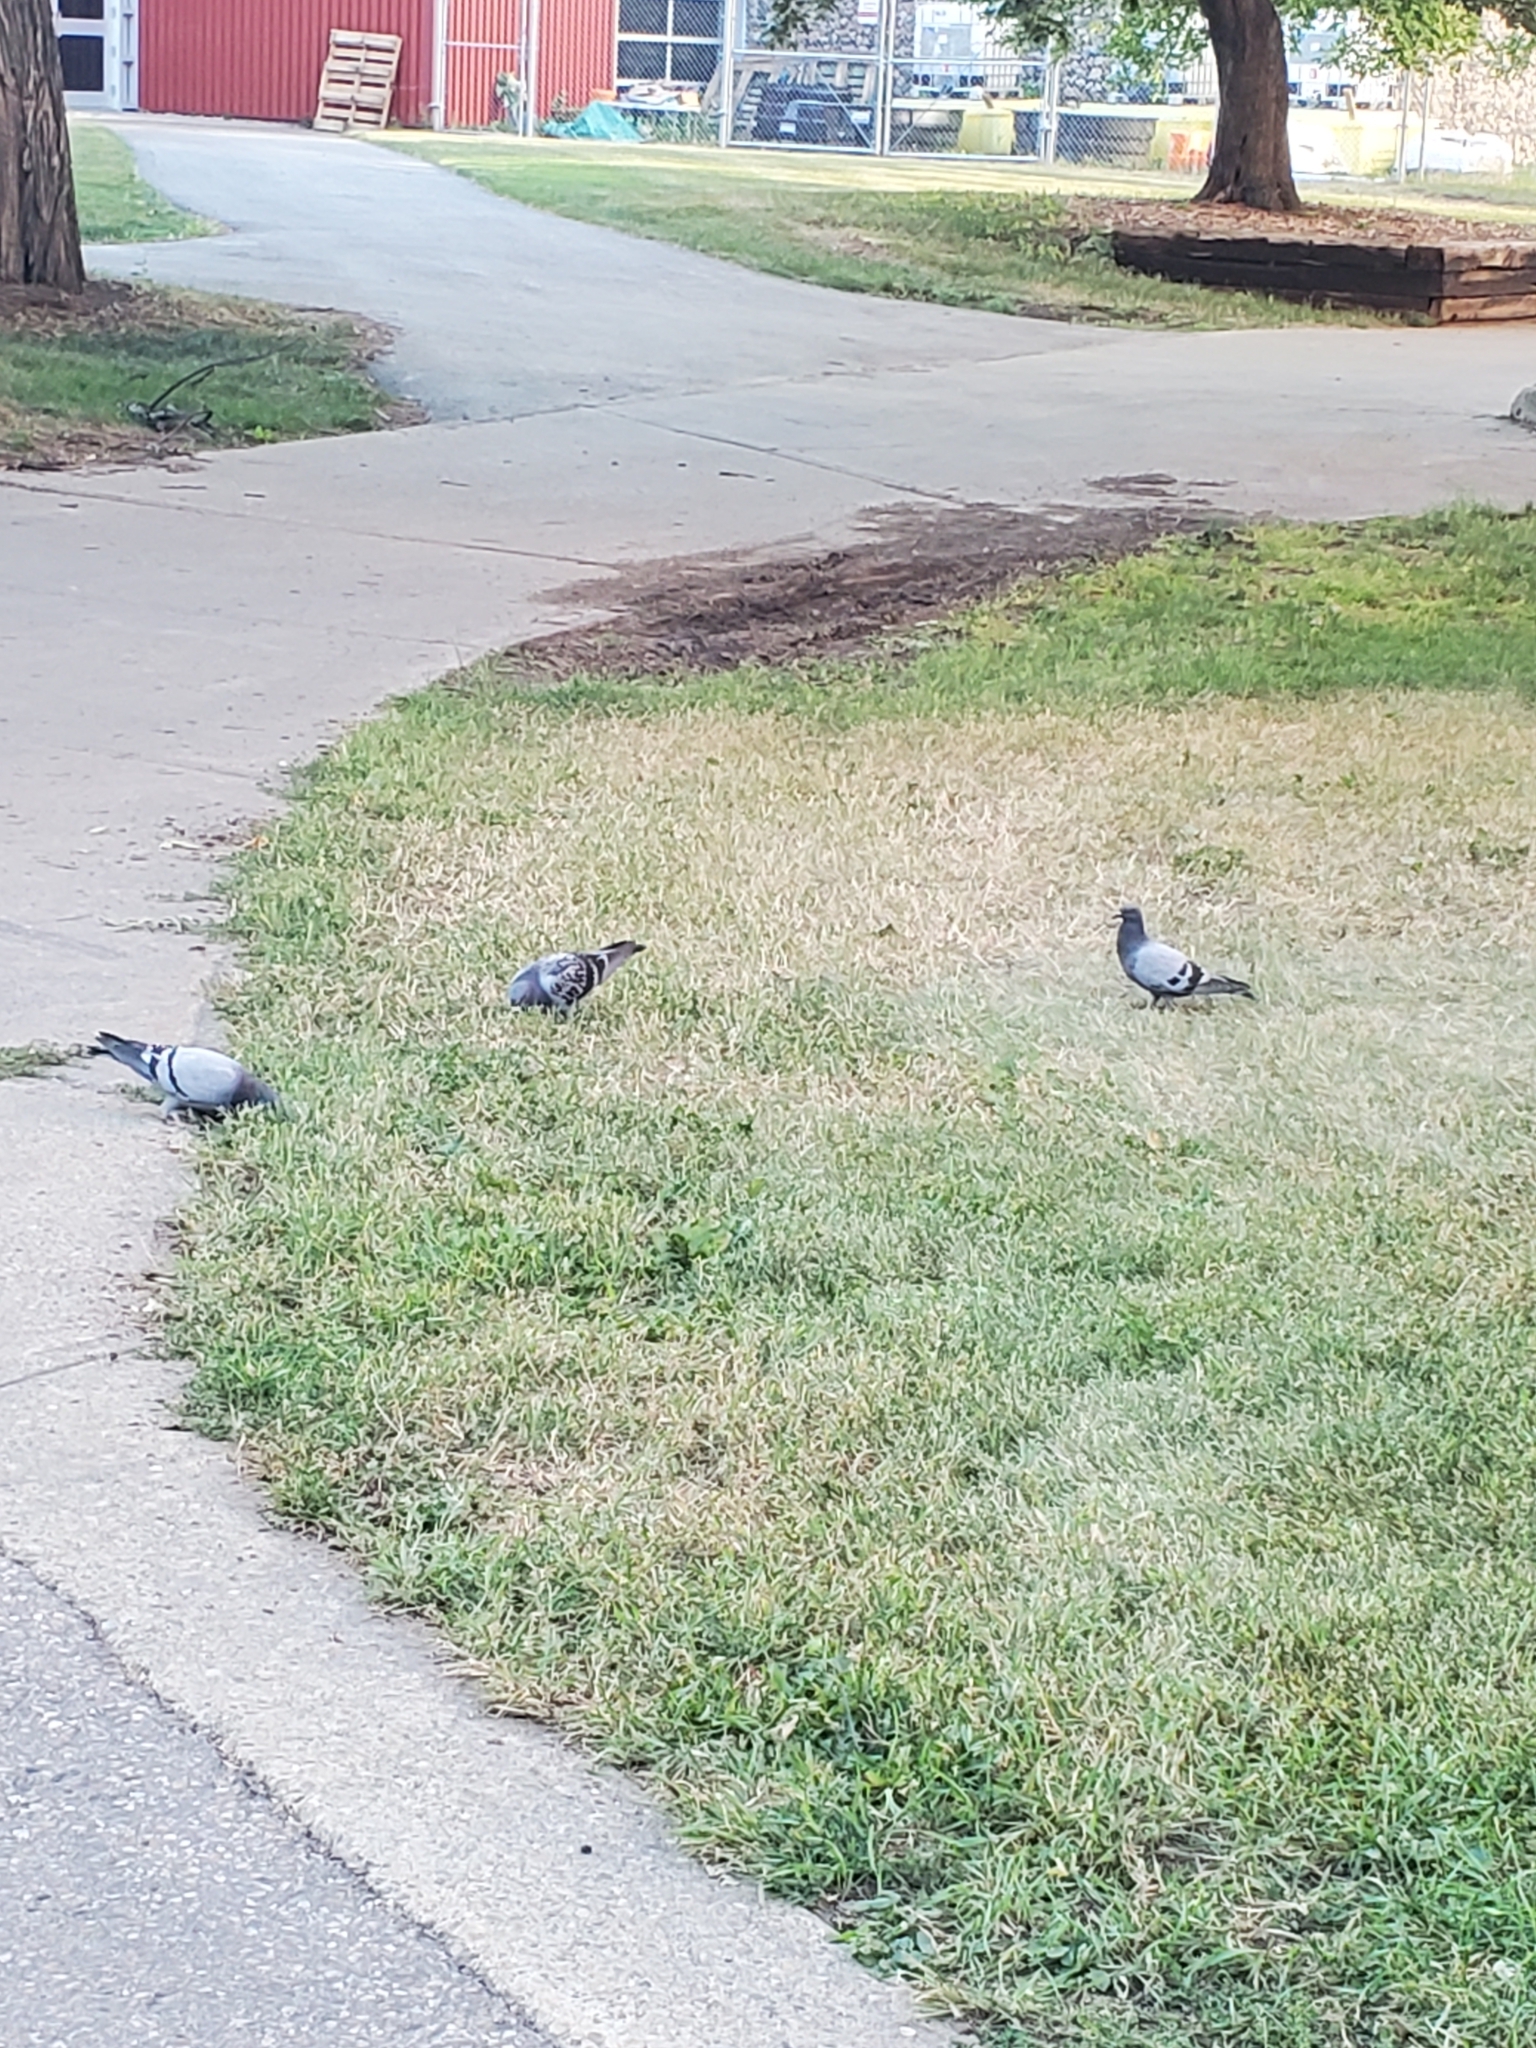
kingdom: Animalia
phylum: Chordata
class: Aves
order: Columbiformes
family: Columbidae
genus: Columba
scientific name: Columba livia
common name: Rock pigeon
